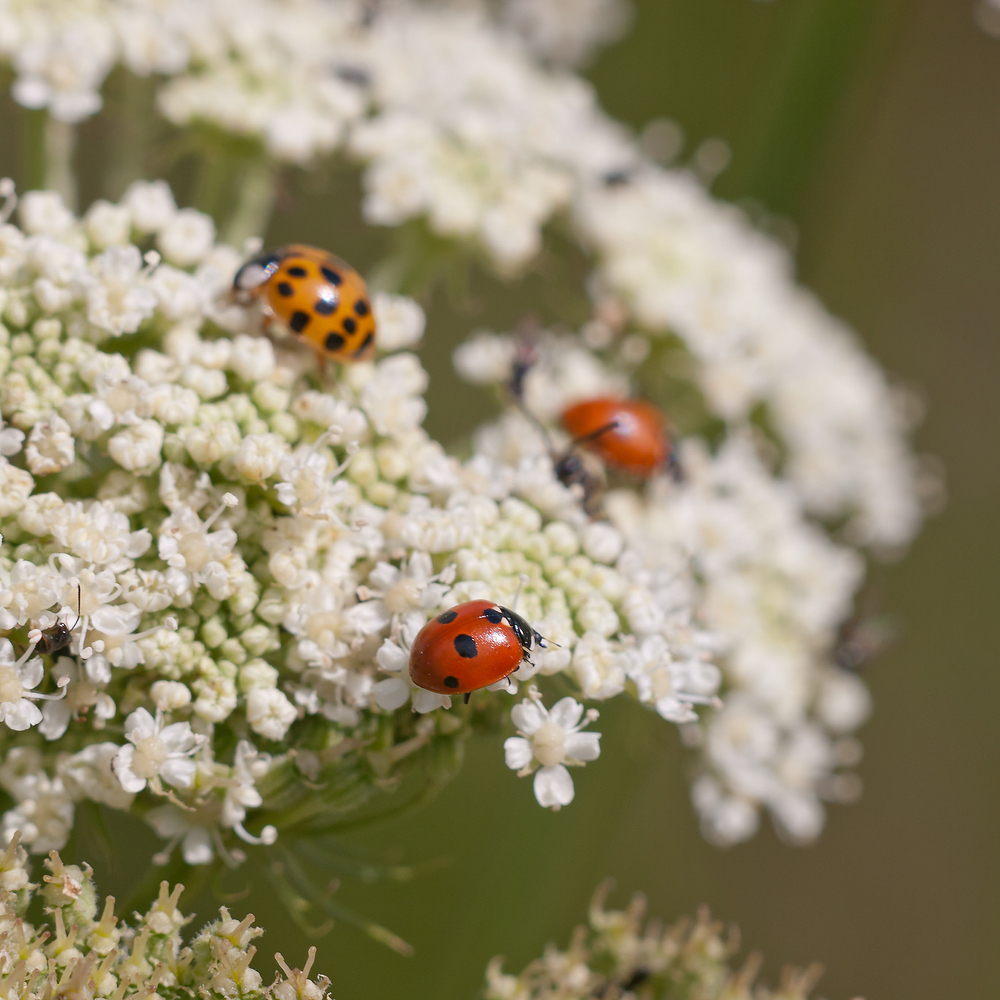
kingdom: Animalia
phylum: Arthropoda
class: Insecta
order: Coleoptera
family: Coccinellidae
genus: Coccinella
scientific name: Coccinella quinquepunctata
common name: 5-spot ladybird
